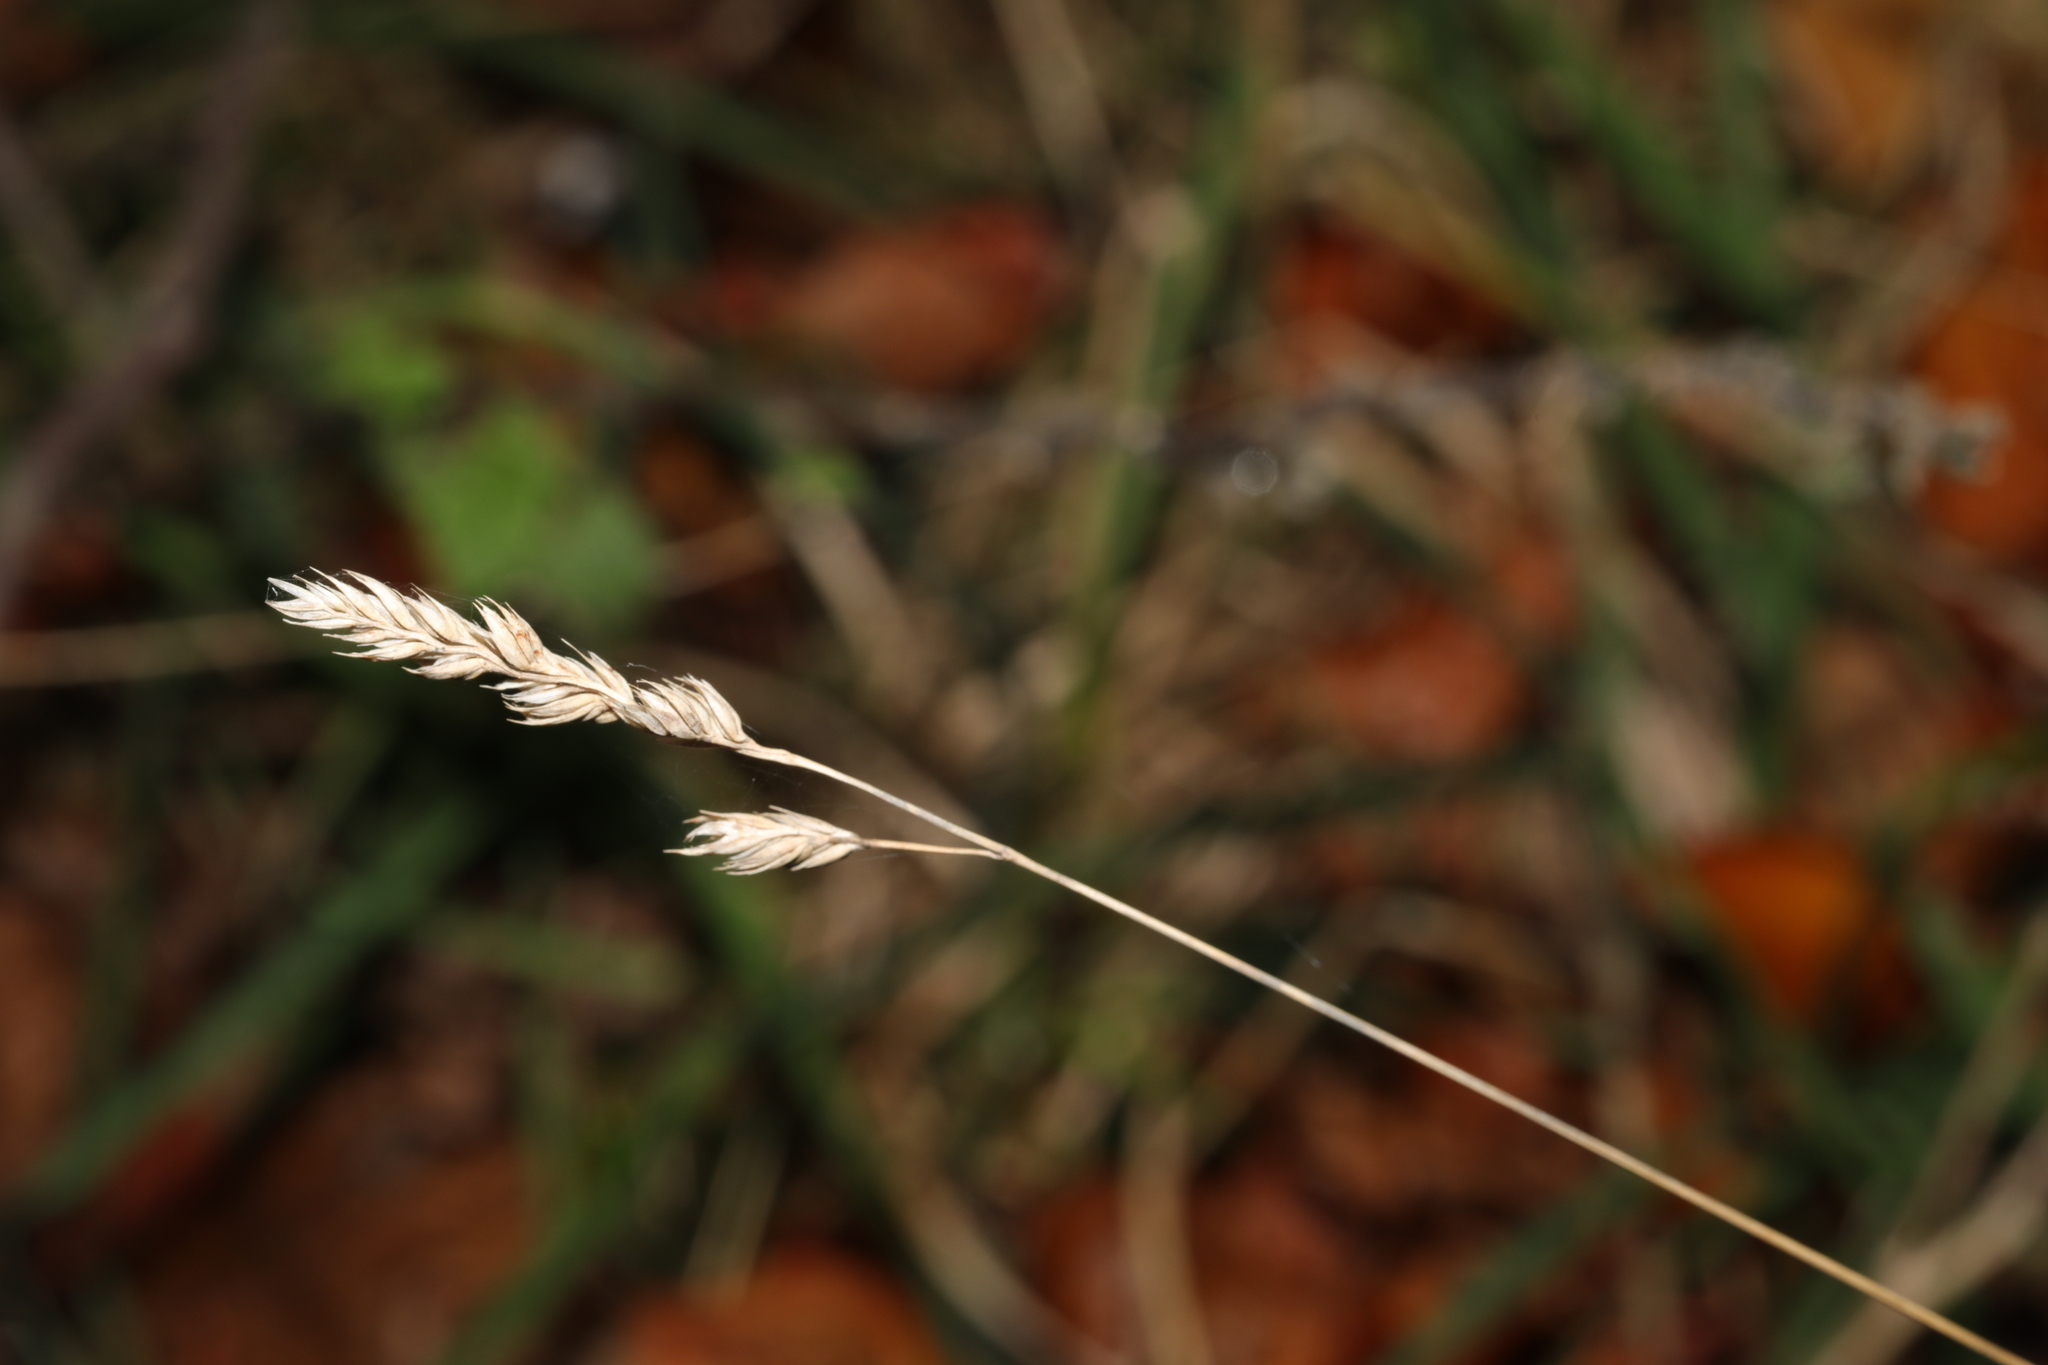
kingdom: Plantae
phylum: Tracheophyta
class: Liliopsida
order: Poales
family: Poaceae
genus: Dactylis
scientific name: Dactylis glomerata
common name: Orchardgrass
